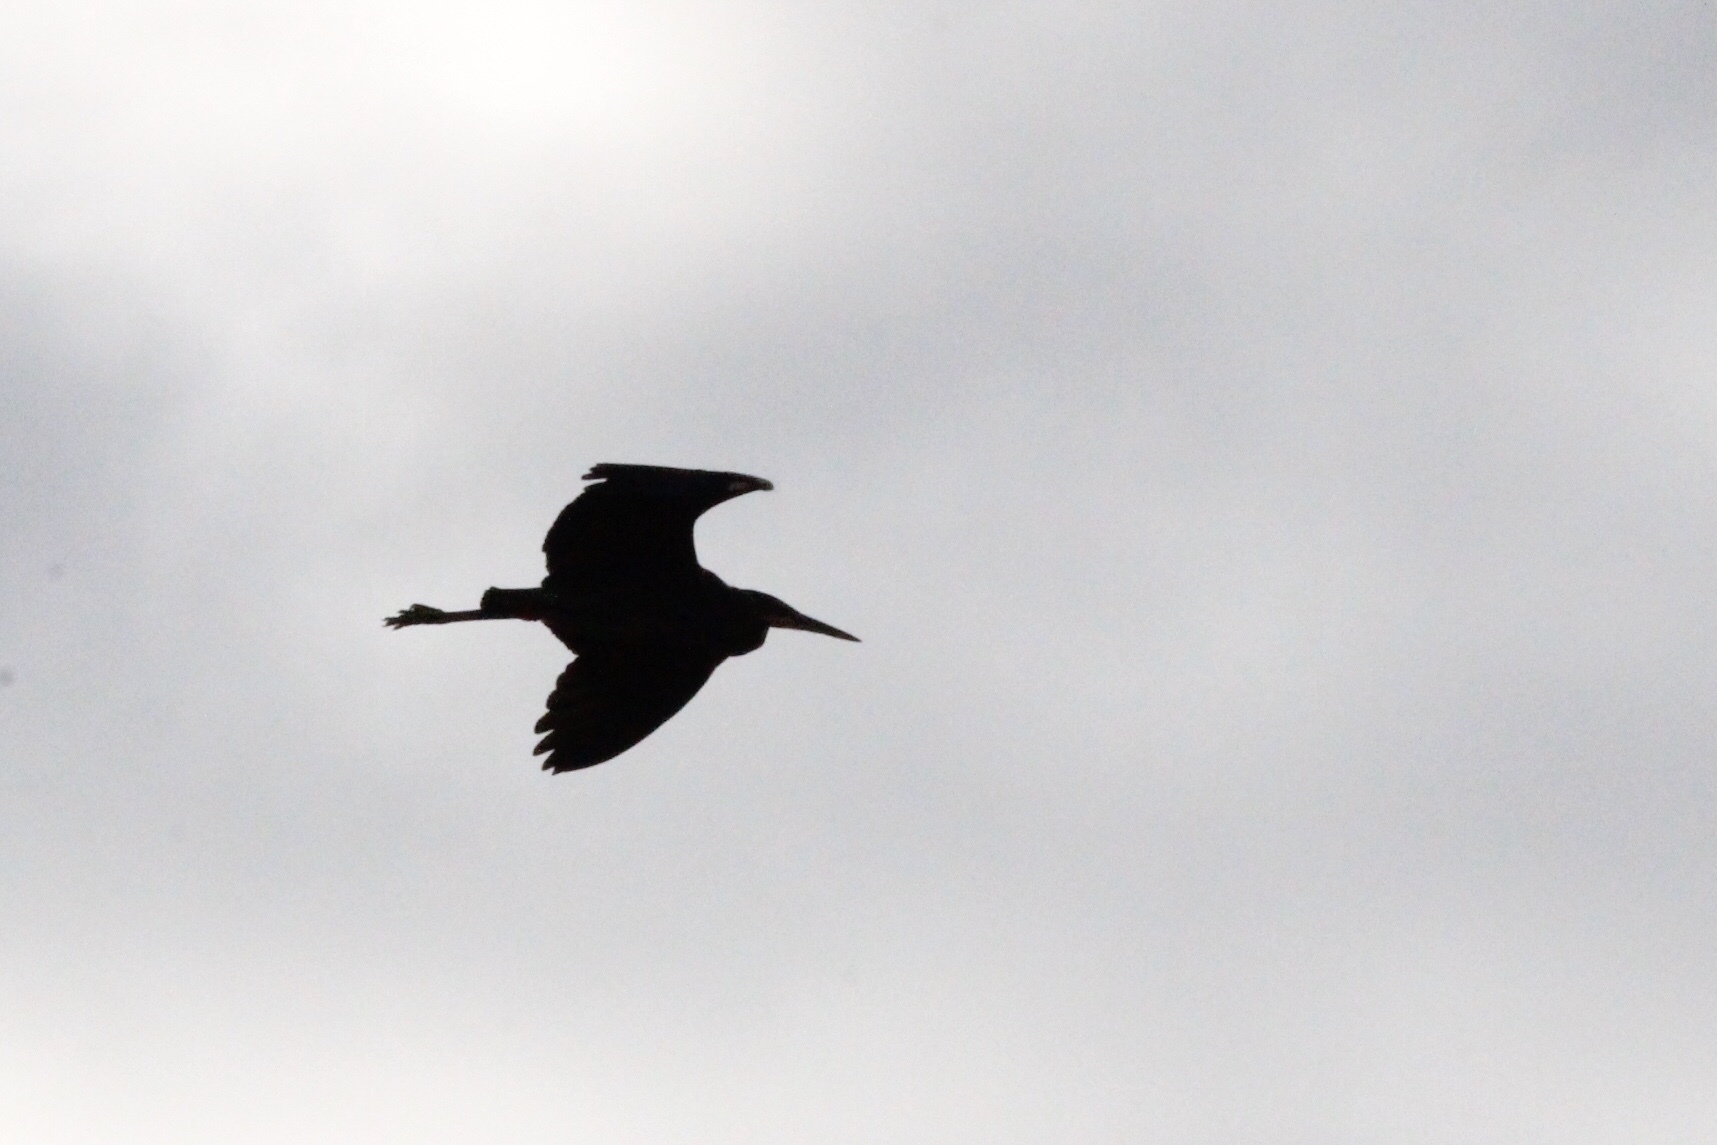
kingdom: Animalia
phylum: Chordata
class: Aves
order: Pelecaniformes
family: Ardeidae
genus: Ardea
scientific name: Ardea herodias
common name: Great blue heron
